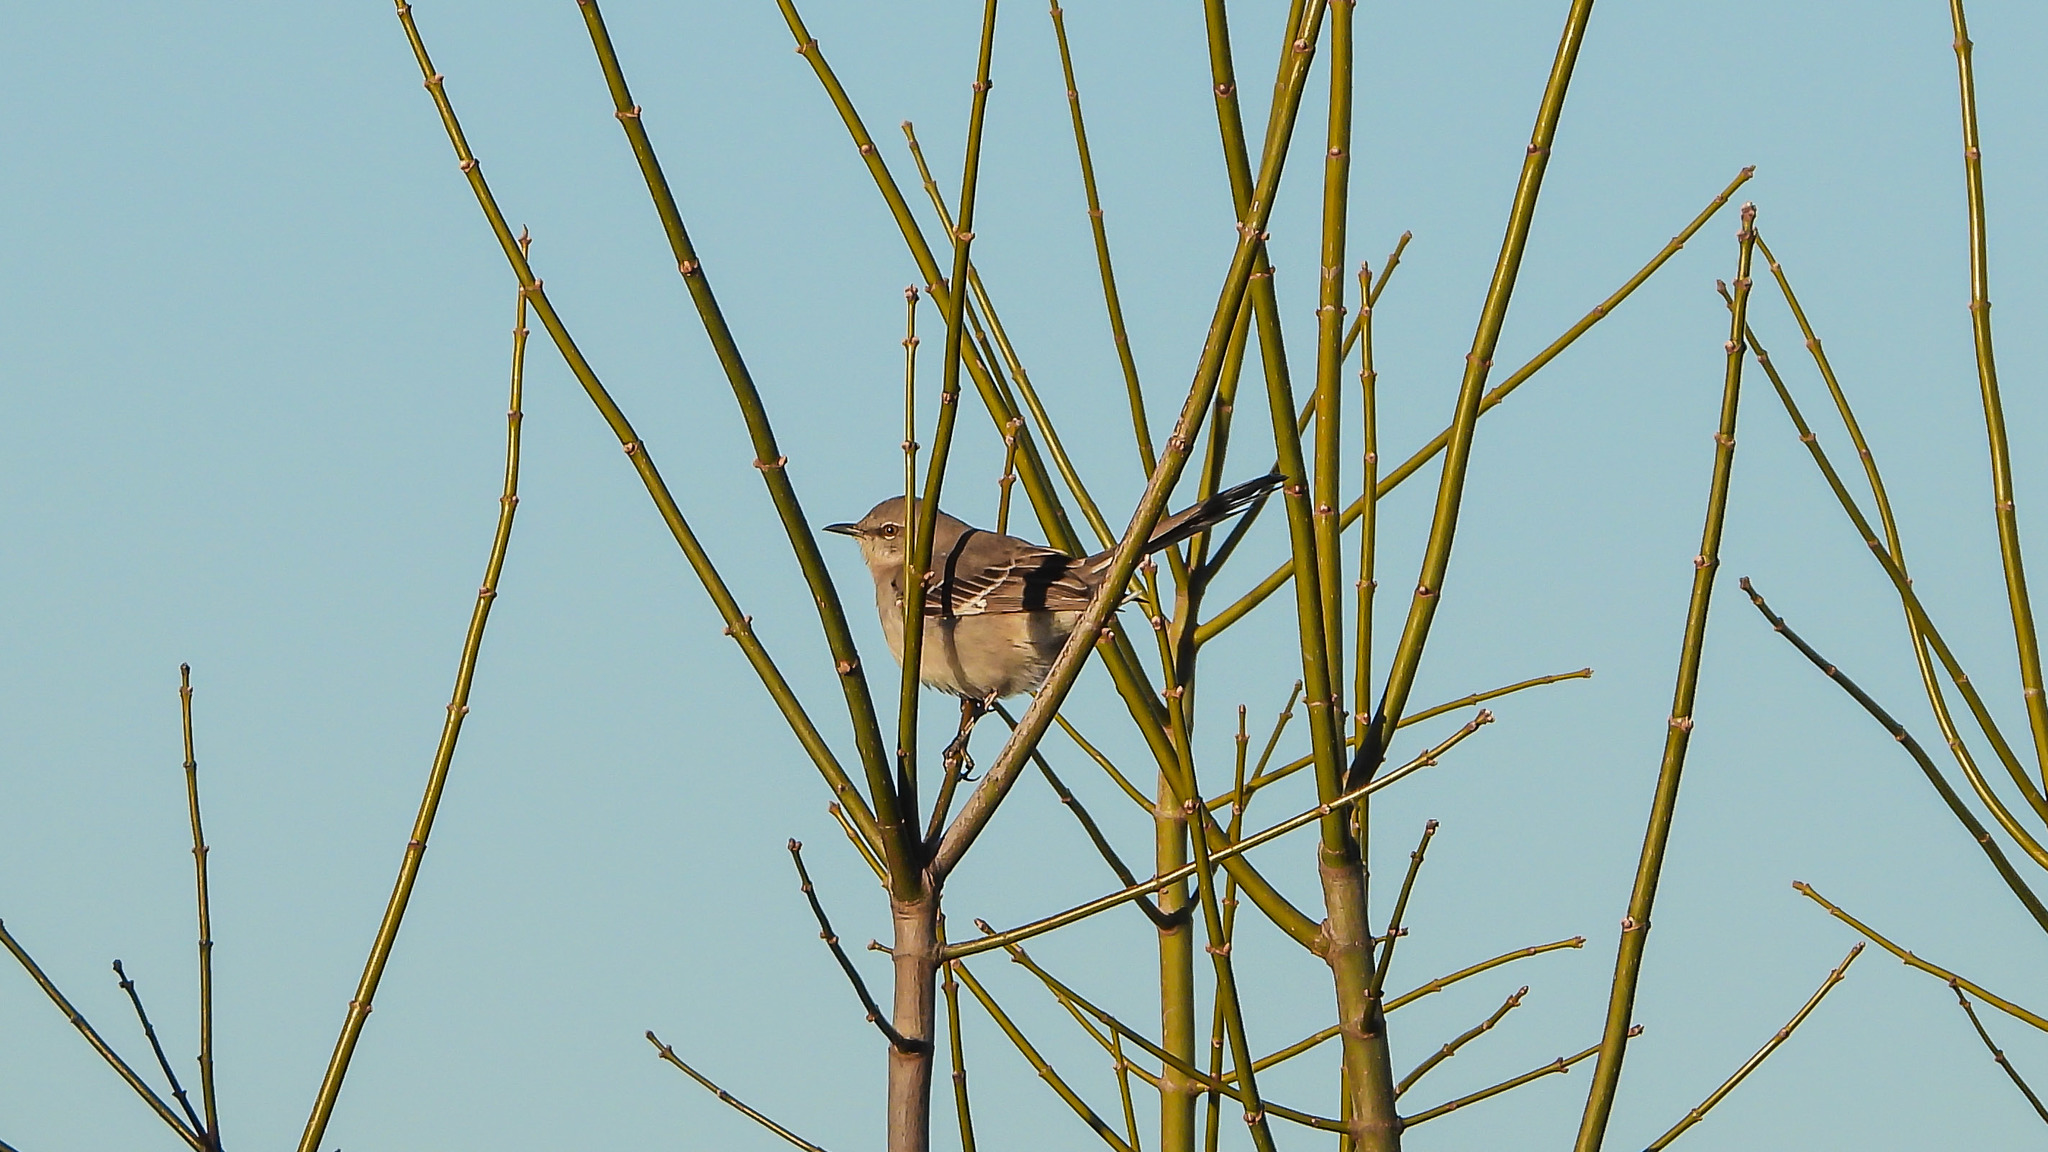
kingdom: Animalia
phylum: Chordata
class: Aves
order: Passeriformes
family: Mimidae
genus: Mimus
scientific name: Mimus polyglottos
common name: Northern mockingbird
